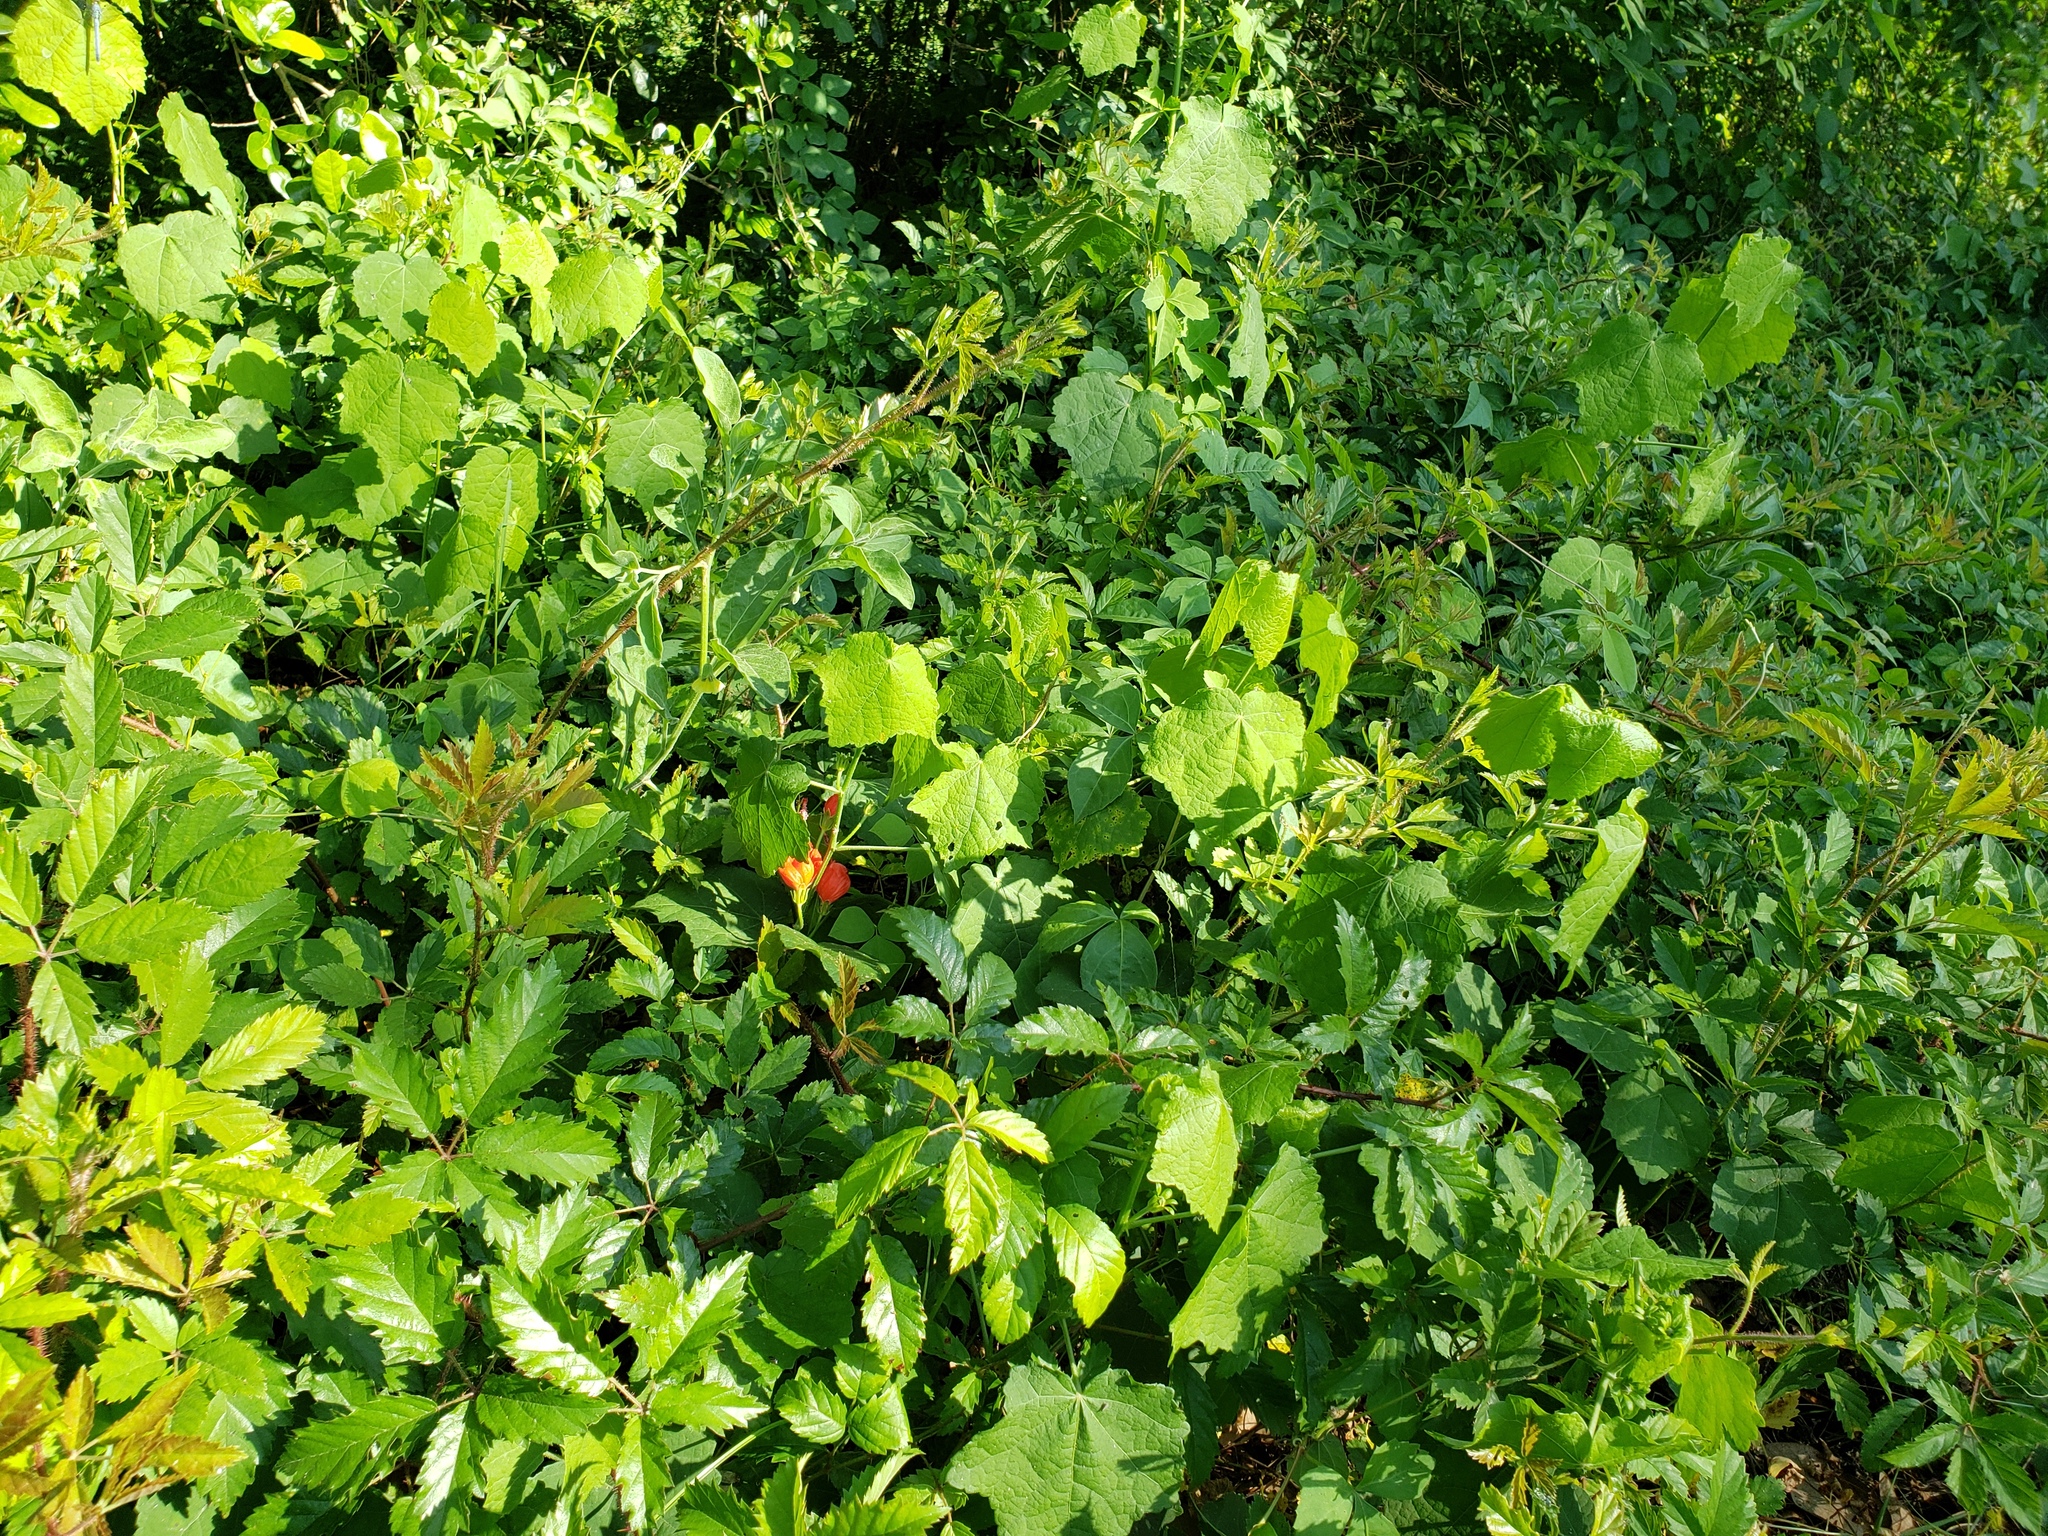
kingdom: Plantae
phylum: Tracheophyta
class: Magnoliopsida
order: Malvales
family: Malvaceae
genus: Malvaviscus
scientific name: Malvaviscus arboreus
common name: Wax mallow
